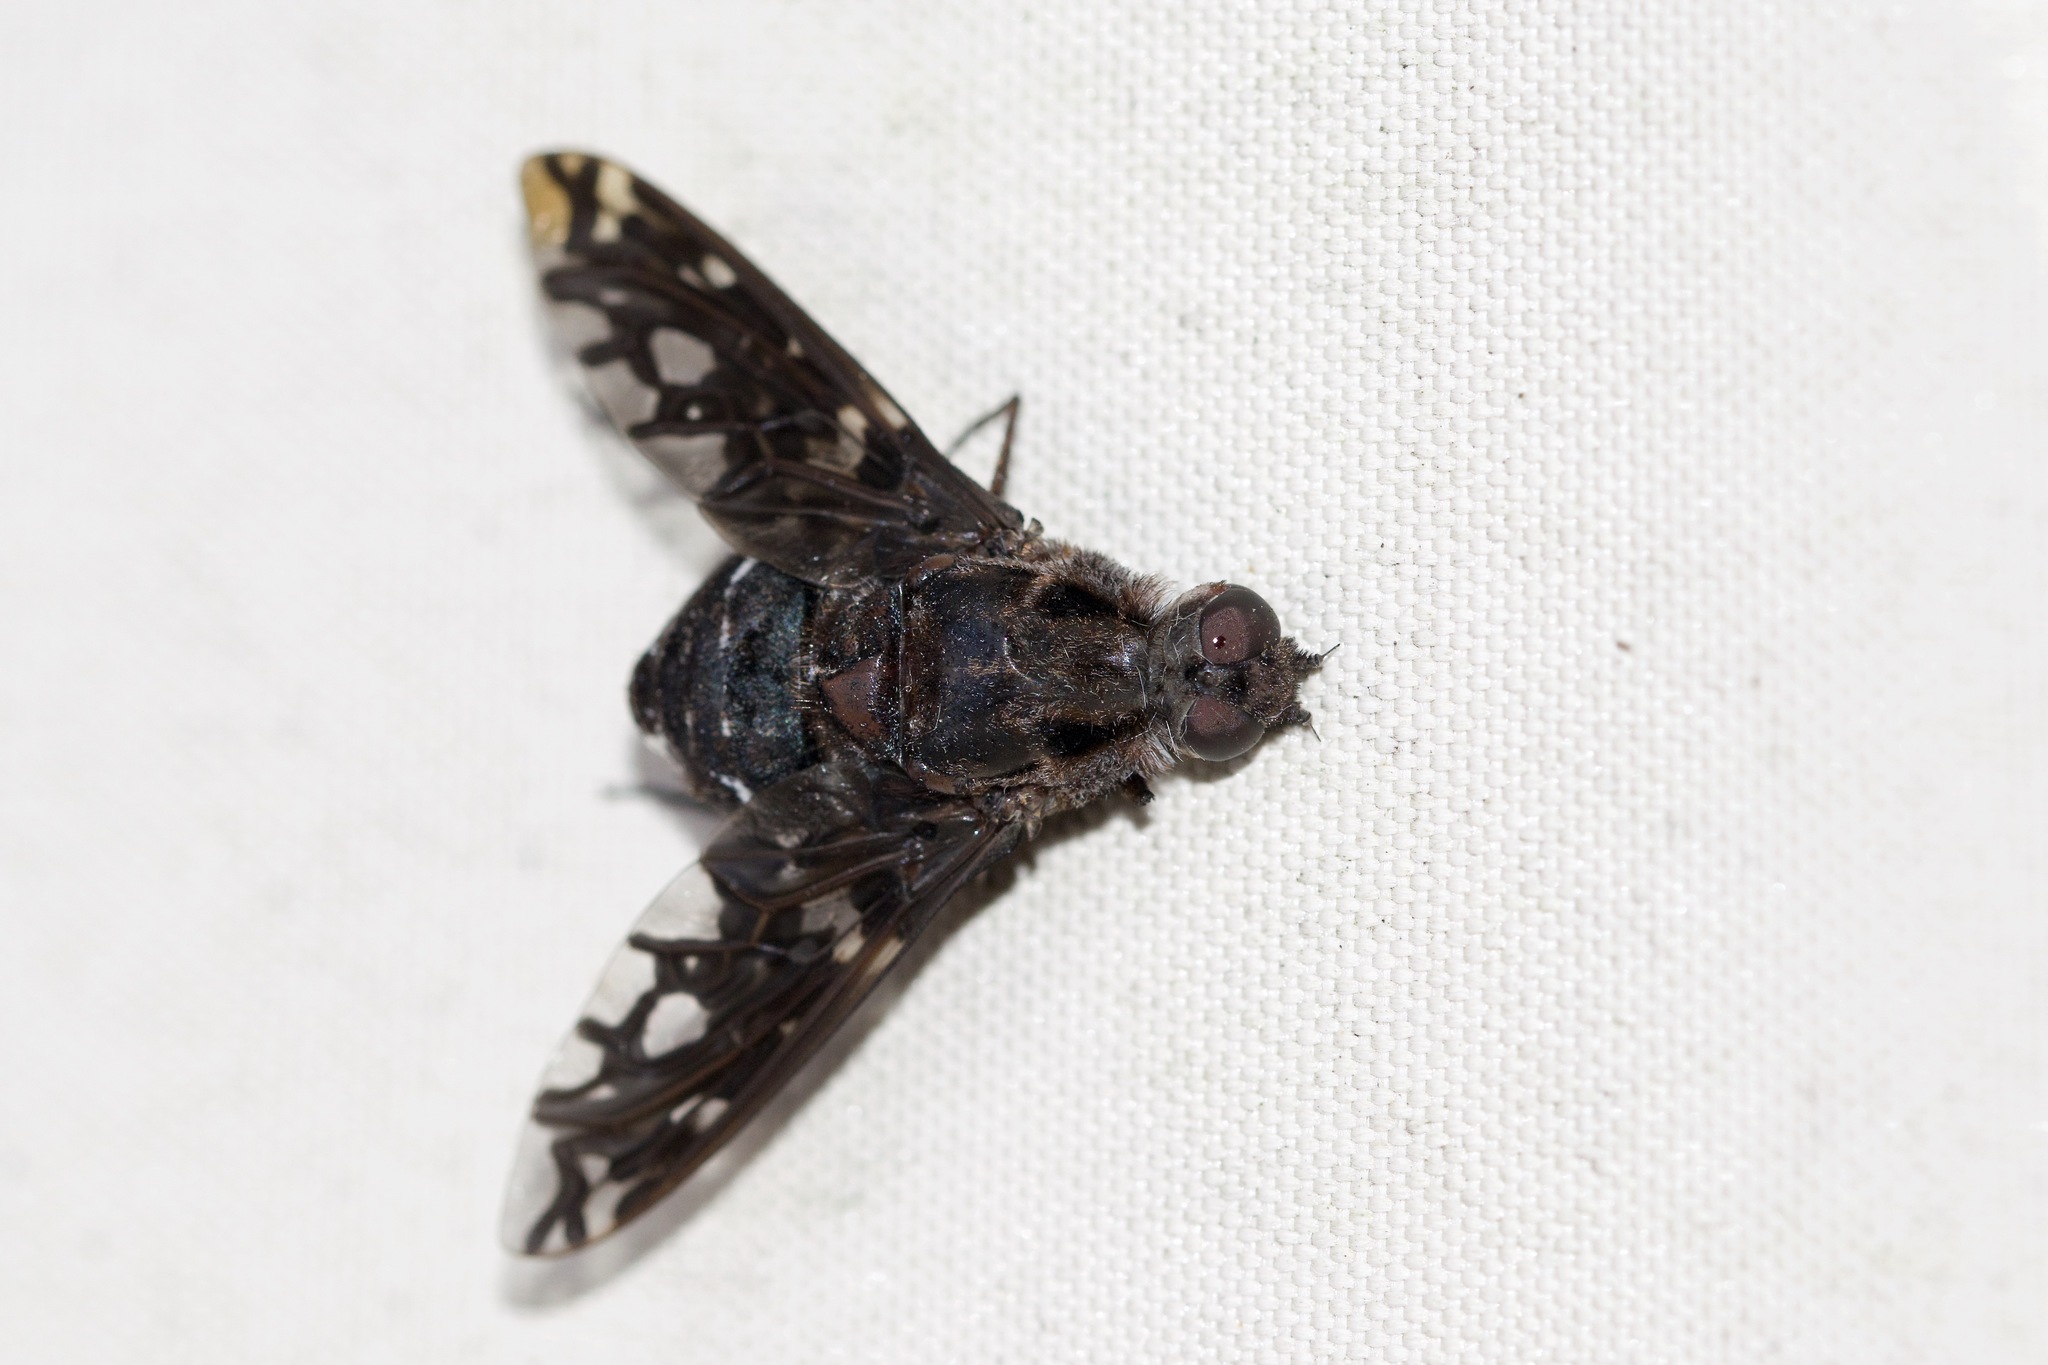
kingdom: Animalia
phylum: Arthropoda
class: Insecta
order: Diptera
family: Bombyliidae
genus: Xenox
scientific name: Xenox tigrinus
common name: Tiger bee fly
